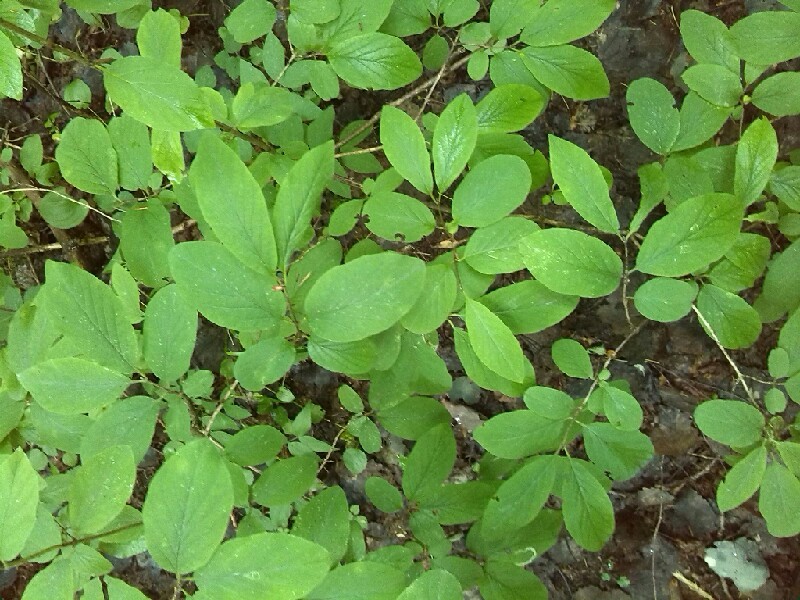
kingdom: Plantae
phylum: Tracheophyta
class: Magnoliopsida
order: Dipsacales
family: Caprifoliaceae
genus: Lonicera
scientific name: Lonicera xylosteum
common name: Fly honeysuckle
